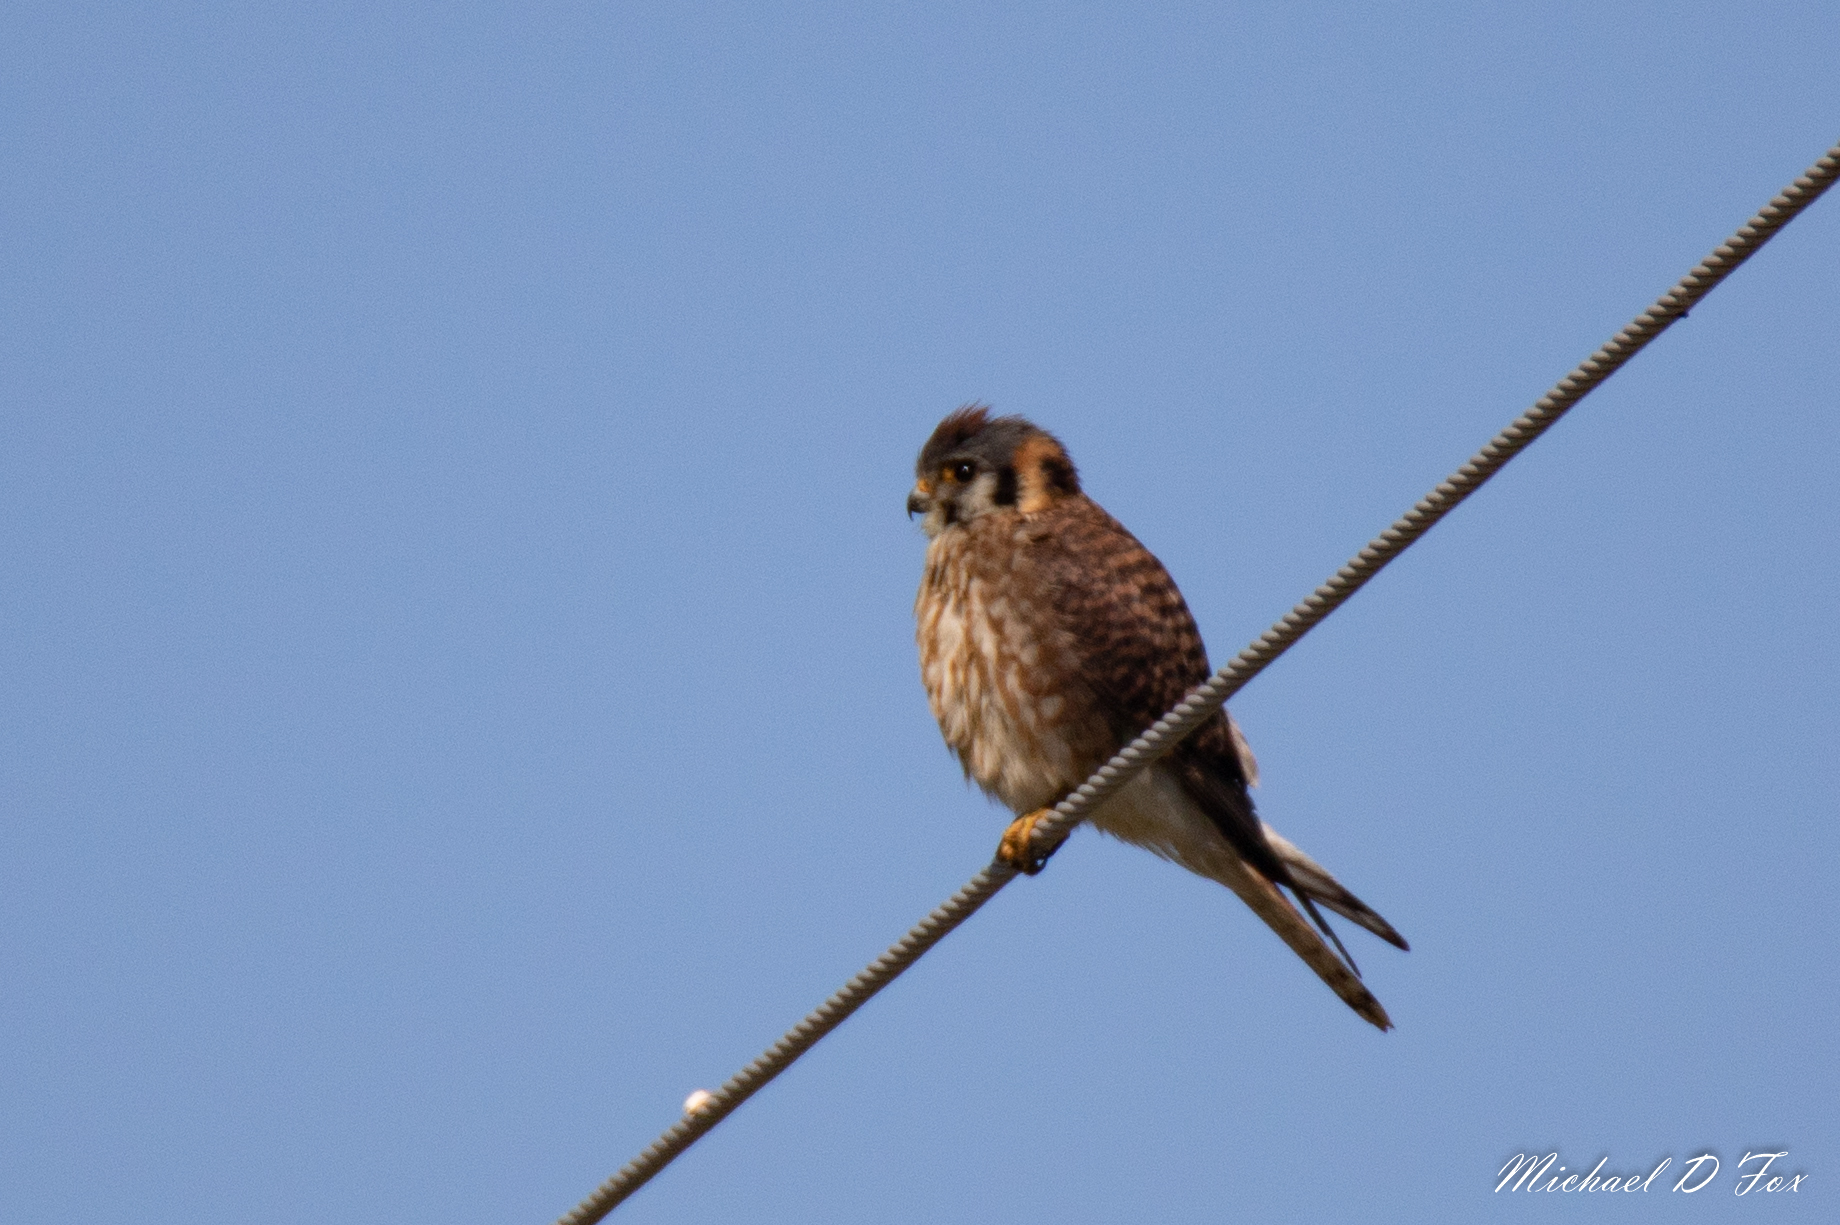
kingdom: Animalia
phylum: Chordata
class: Aves
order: Falconiformes
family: Falconidae
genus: Falco
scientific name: Falco sparverius
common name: American kestrel
